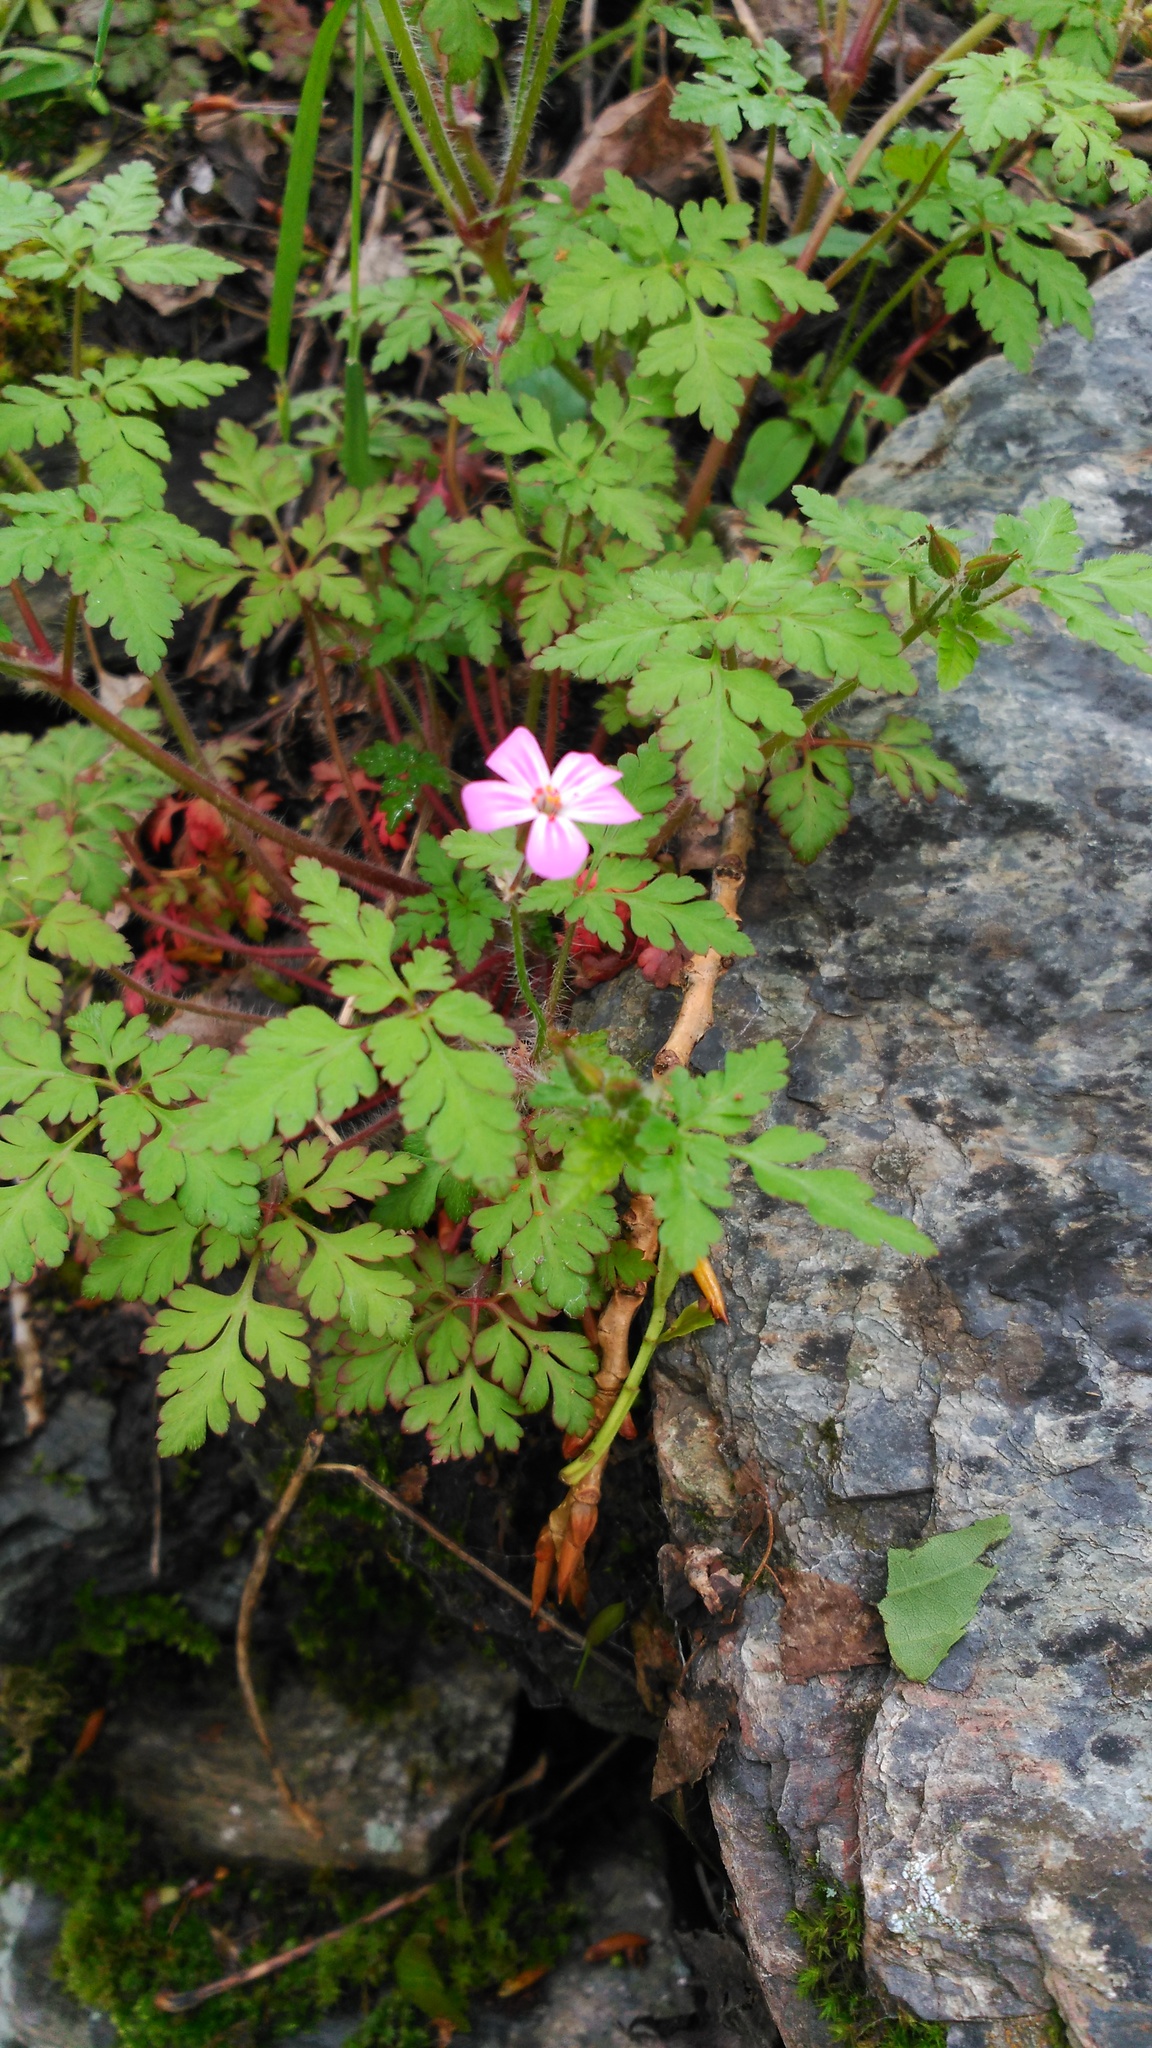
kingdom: Plantae
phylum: Tracheophyta
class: Magnoliopsida
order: Geraniales
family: Geraniaceae
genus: Geranium
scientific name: Geranium robertianum
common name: Herb-robert
